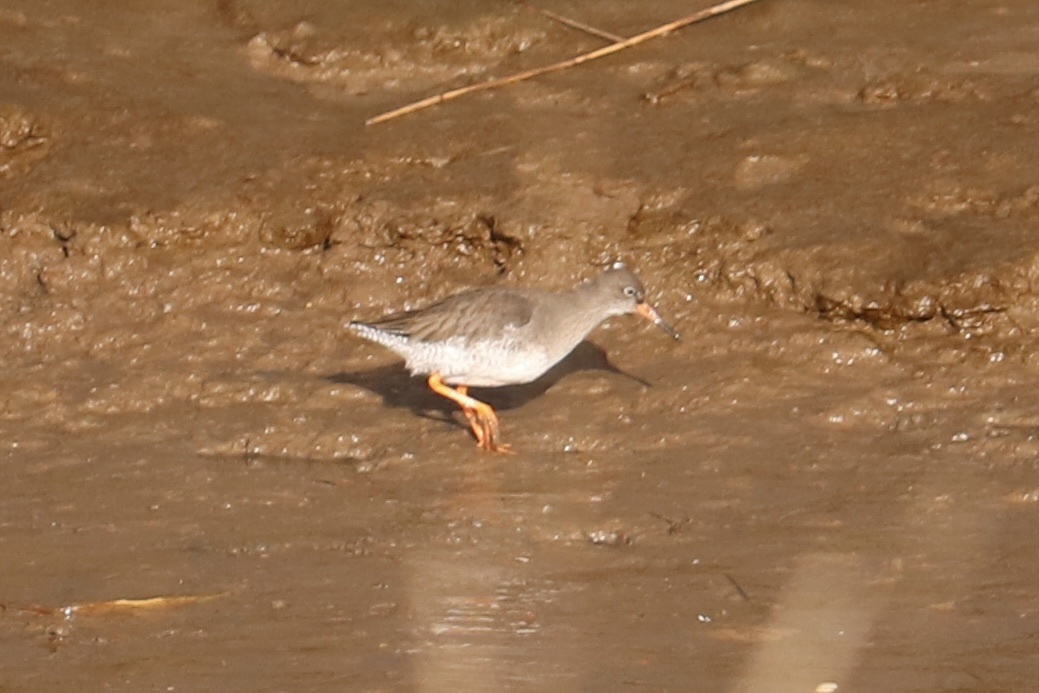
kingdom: Animalia
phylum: Chordata
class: Aves
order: Charadriiformes
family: Scolopacidae
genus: Tringa
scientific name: Tringa totanus
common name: Common redshank
